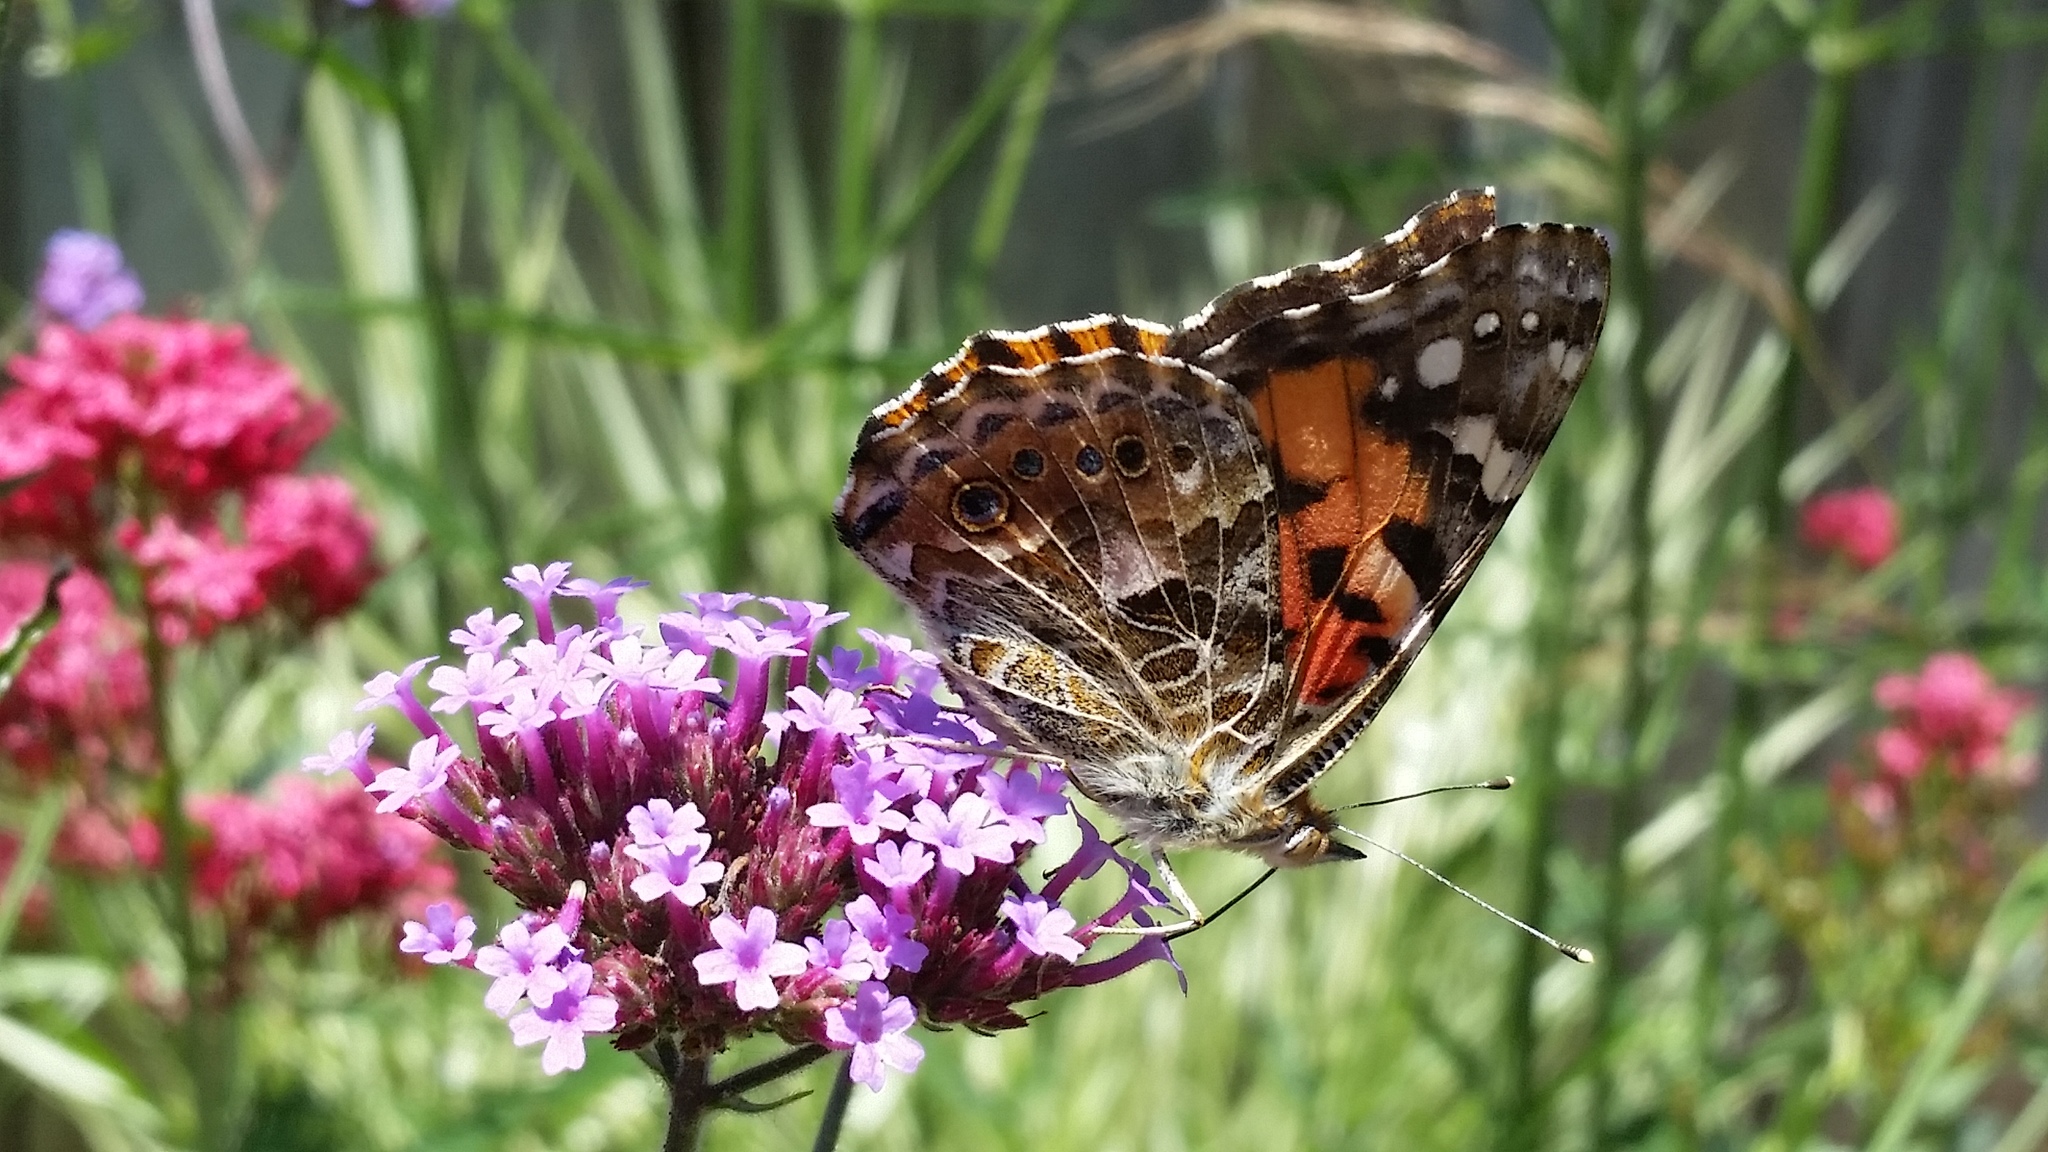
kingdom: Animalia
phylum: Arthropoda
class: Insecta
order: Lepidoptera
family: Nymphalidae
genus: Vanessa
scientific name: Vanessa cardui
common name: Painted lady
